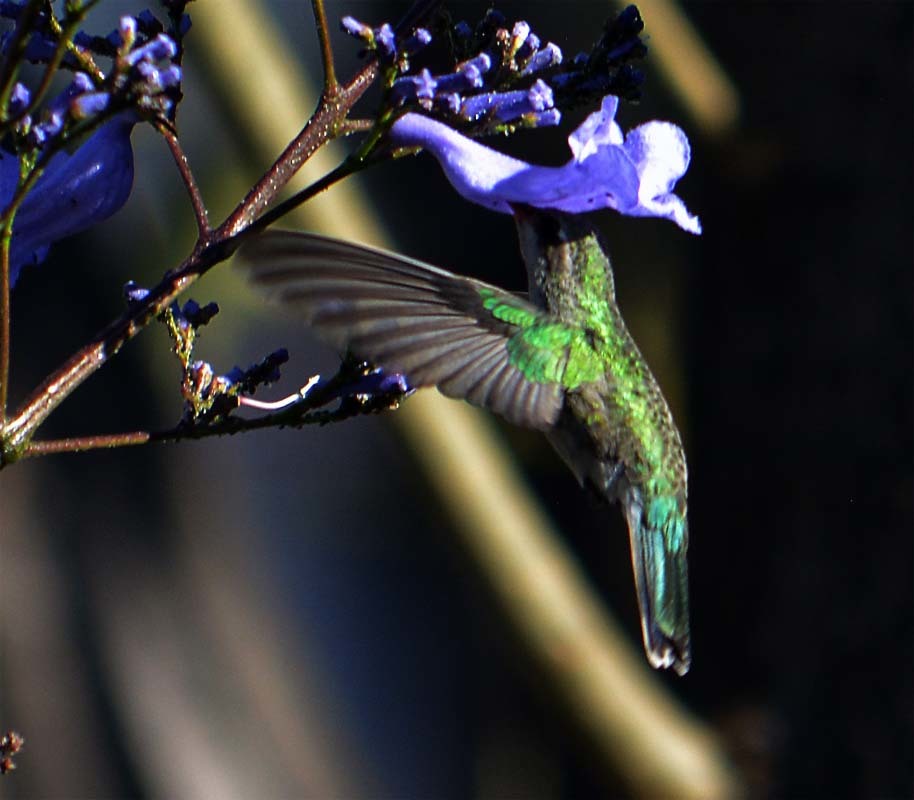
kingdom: Animalia
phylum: Chordata
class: Aves
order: Apodiformes
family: Trochilidae
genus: Cynanthus
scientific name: Cynanthus latirostris
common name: Broad-billed hummingbird
